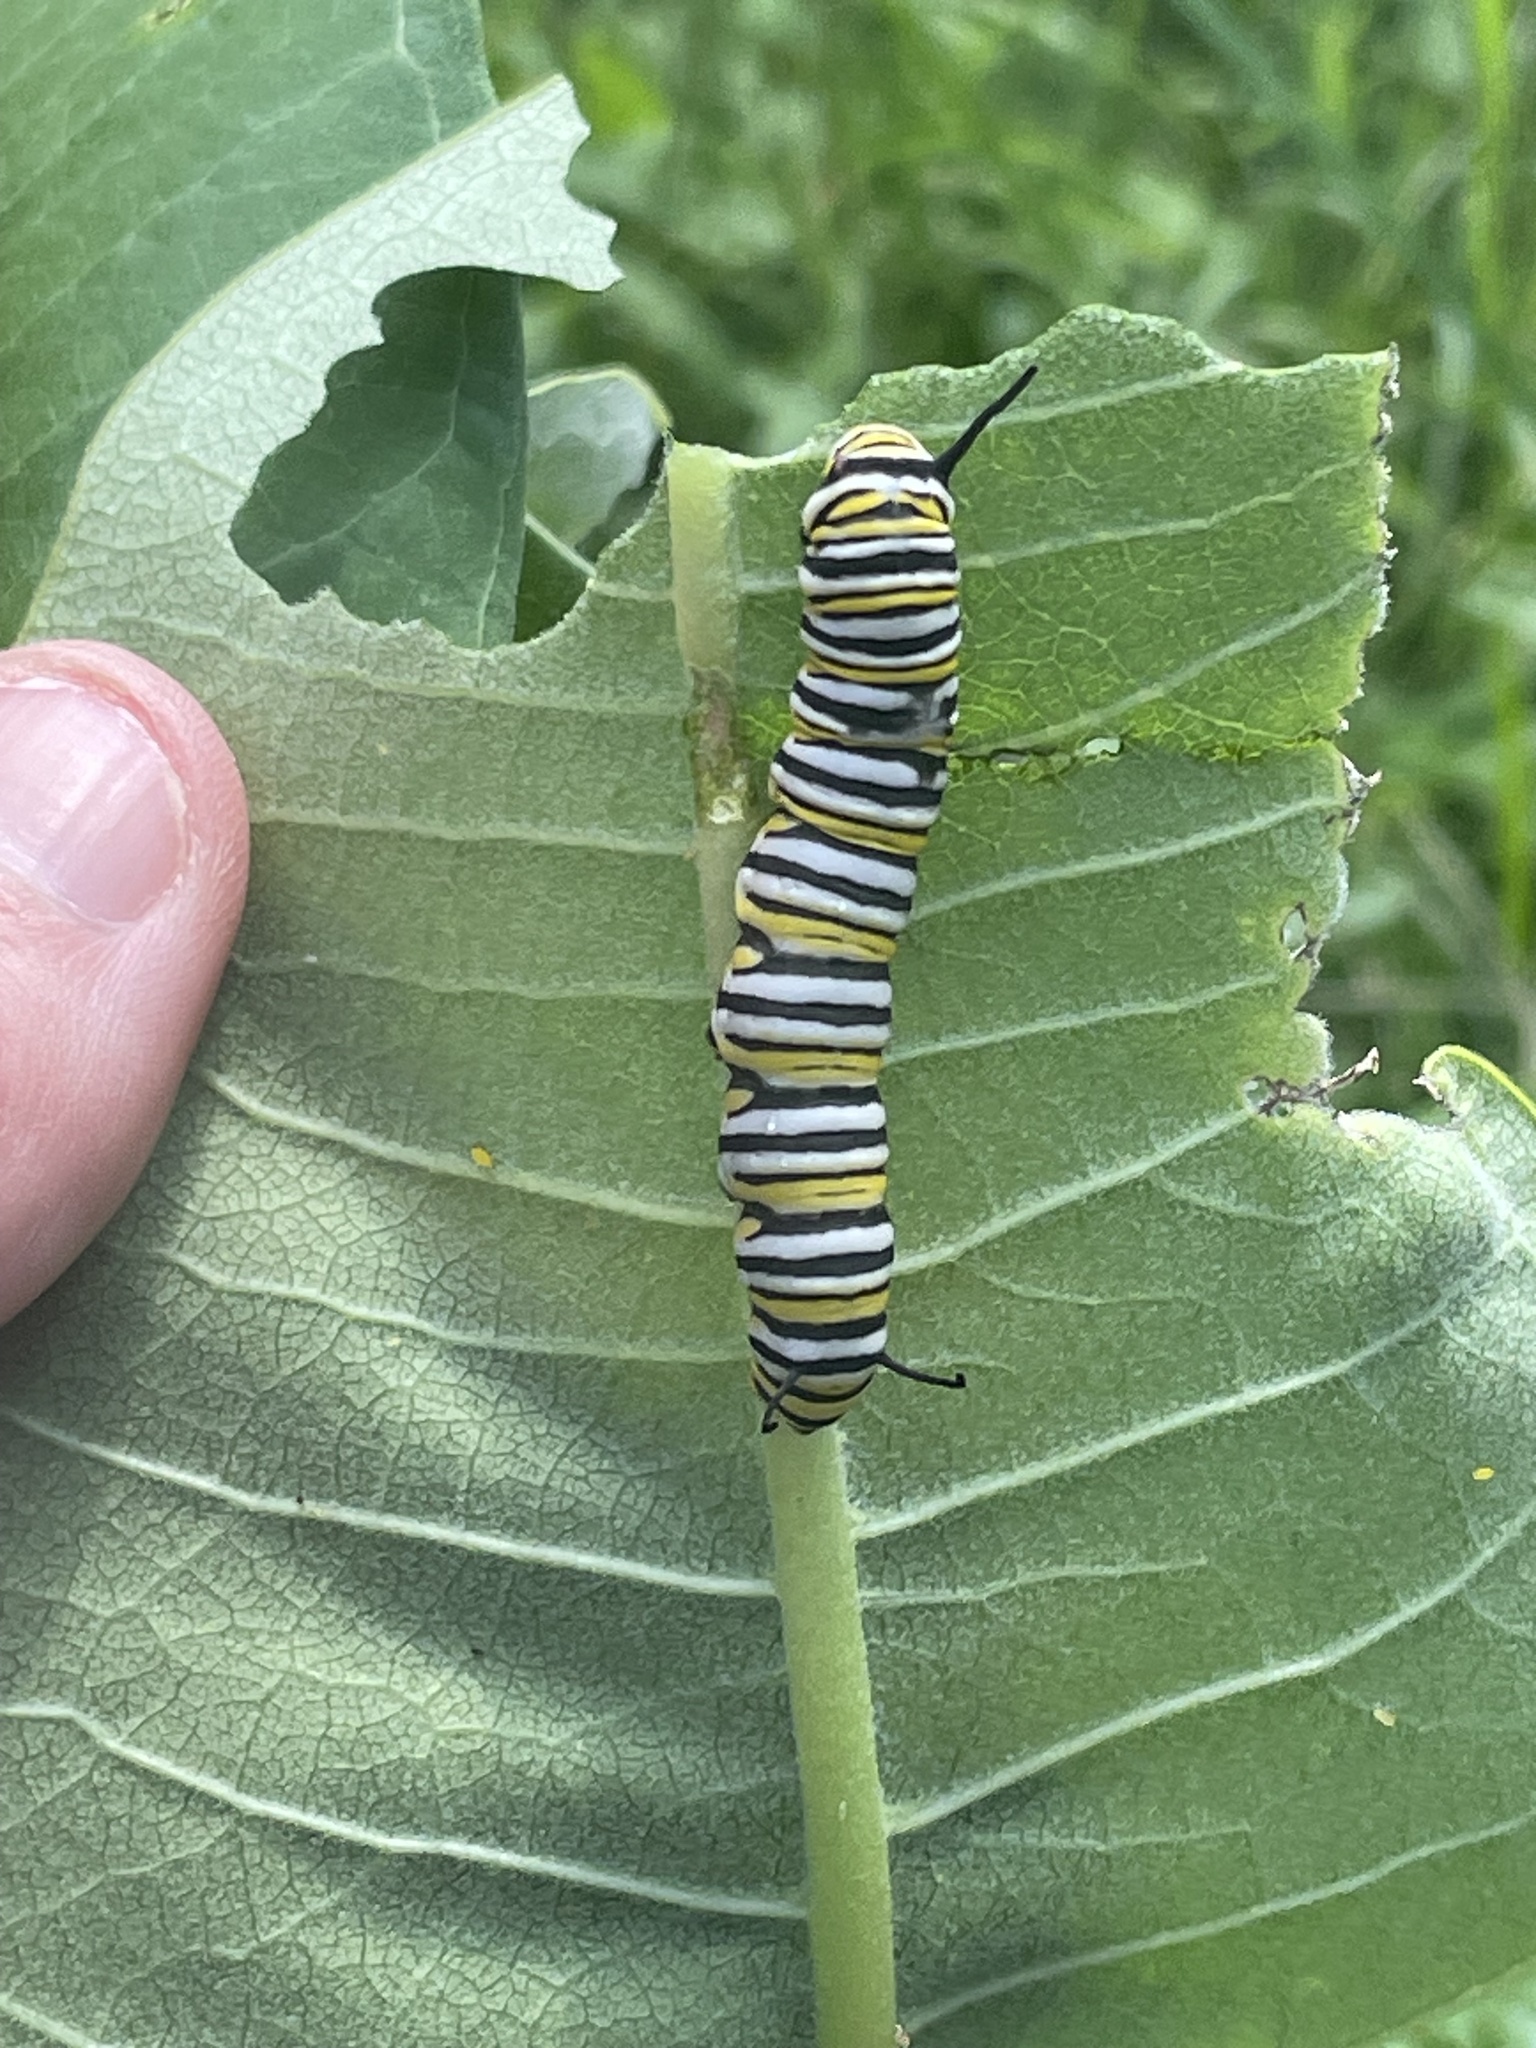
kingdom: Animalia
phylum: Arthropoda
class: Insecta
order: Lepidoptera
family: Nymphalidae
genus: Danaus
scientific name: Danaus plexippus
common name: Monarch
